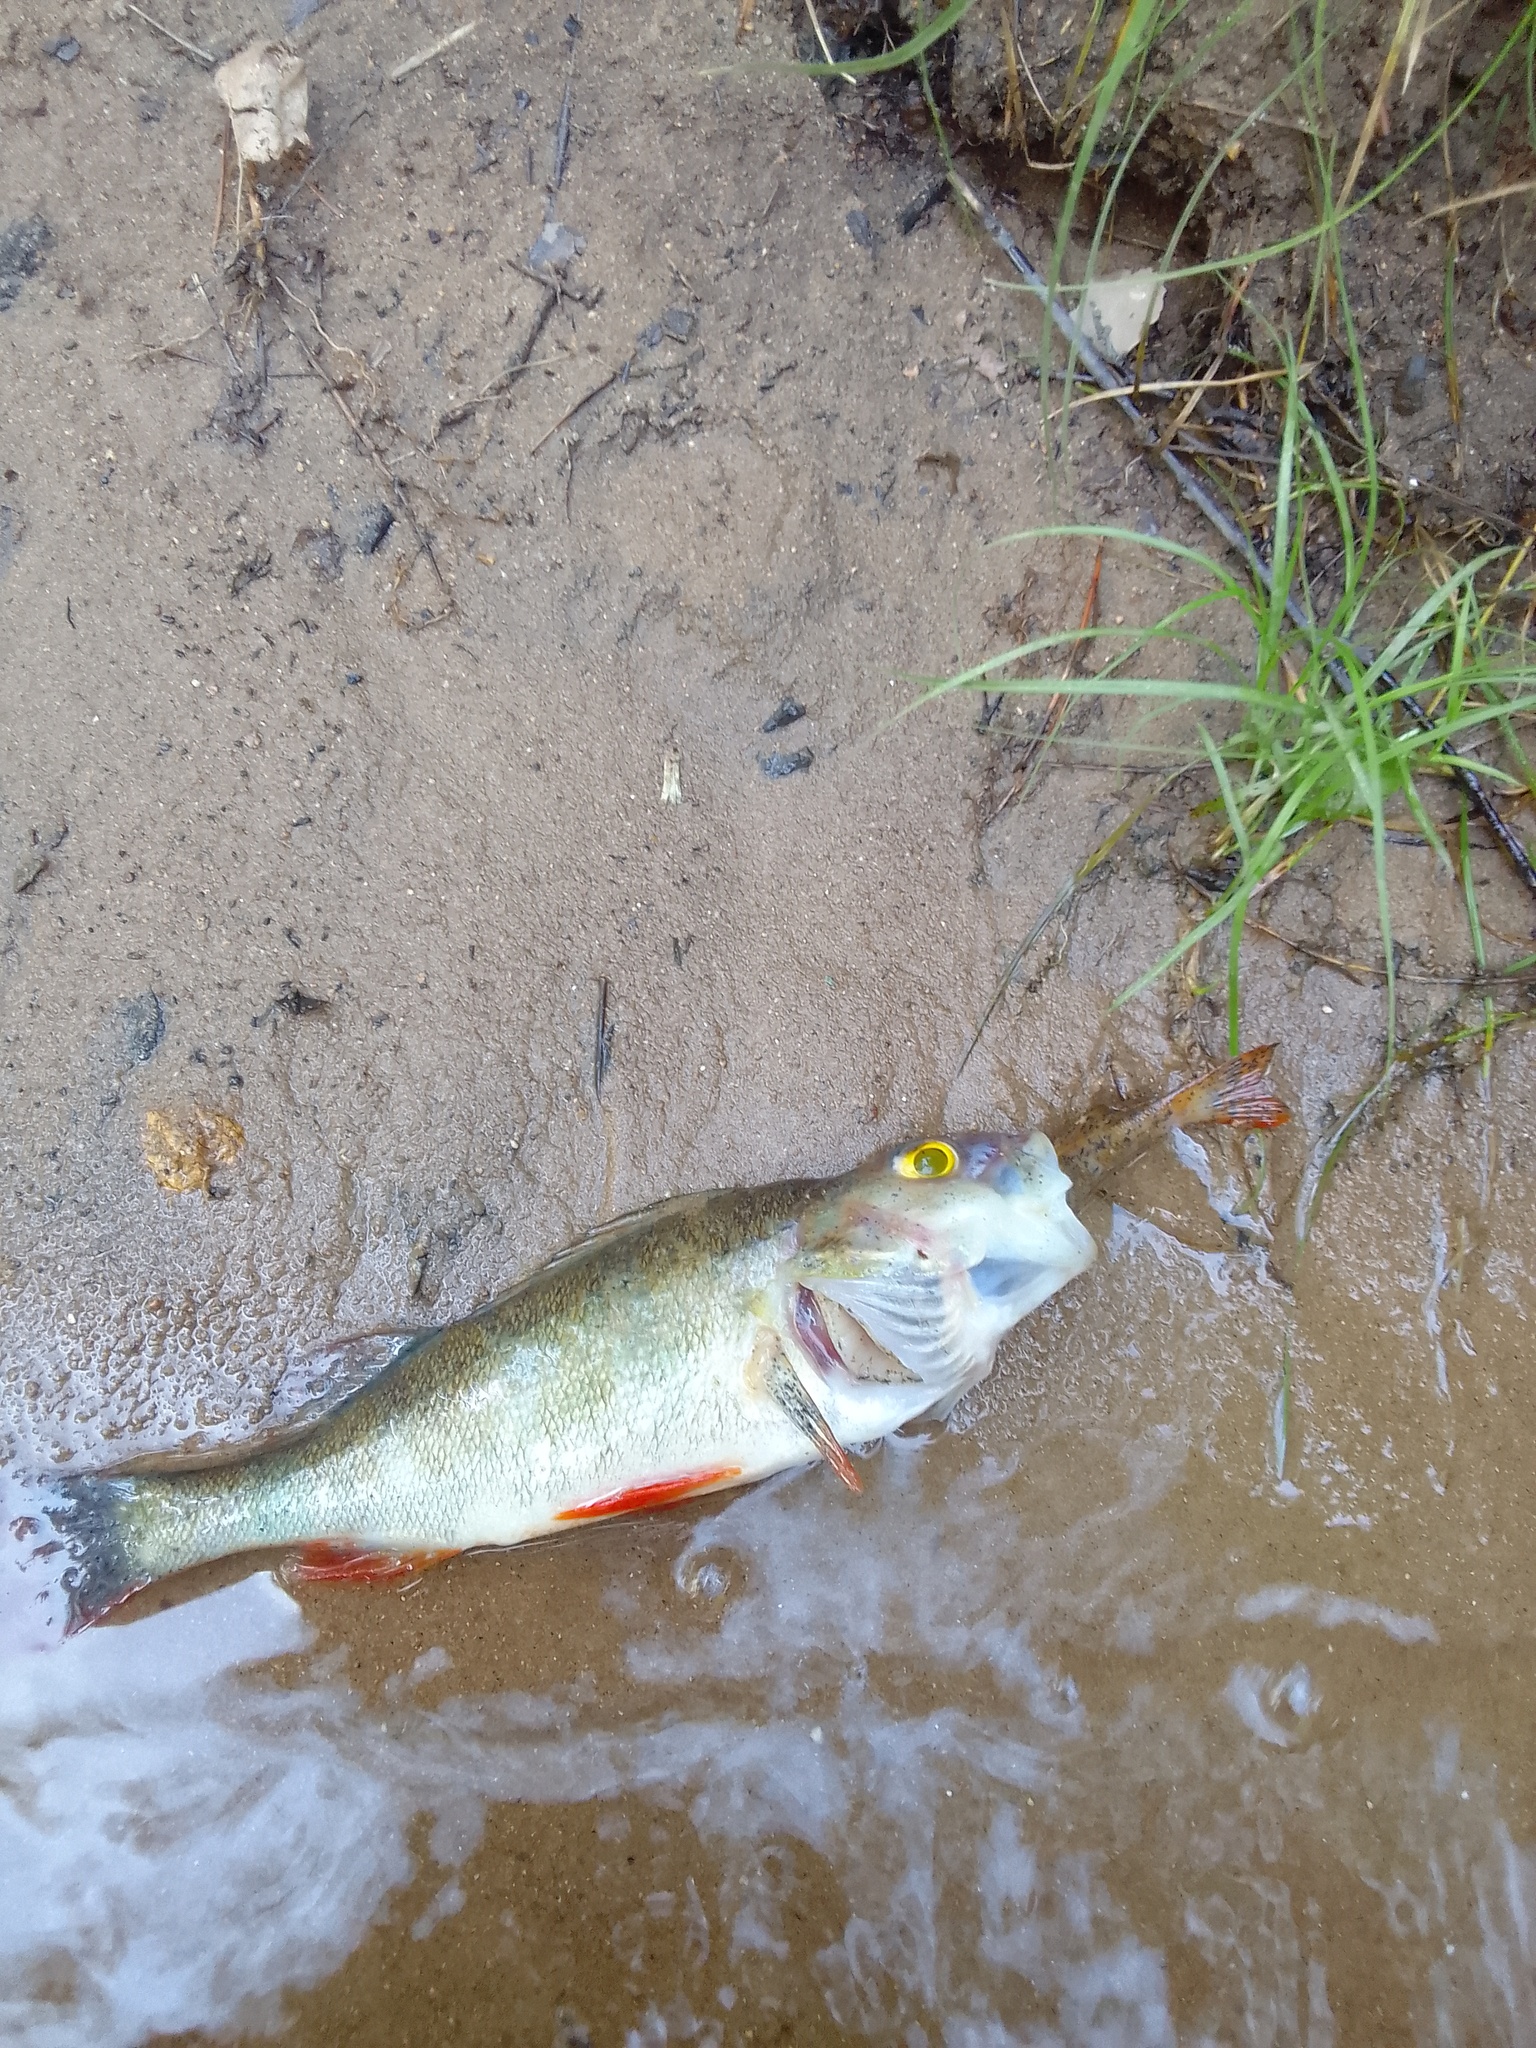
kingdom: Animalia
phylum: Chordata
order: Perciformes
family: Percidae
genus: Perca
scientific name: Perca fluviatilis
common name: Perch
